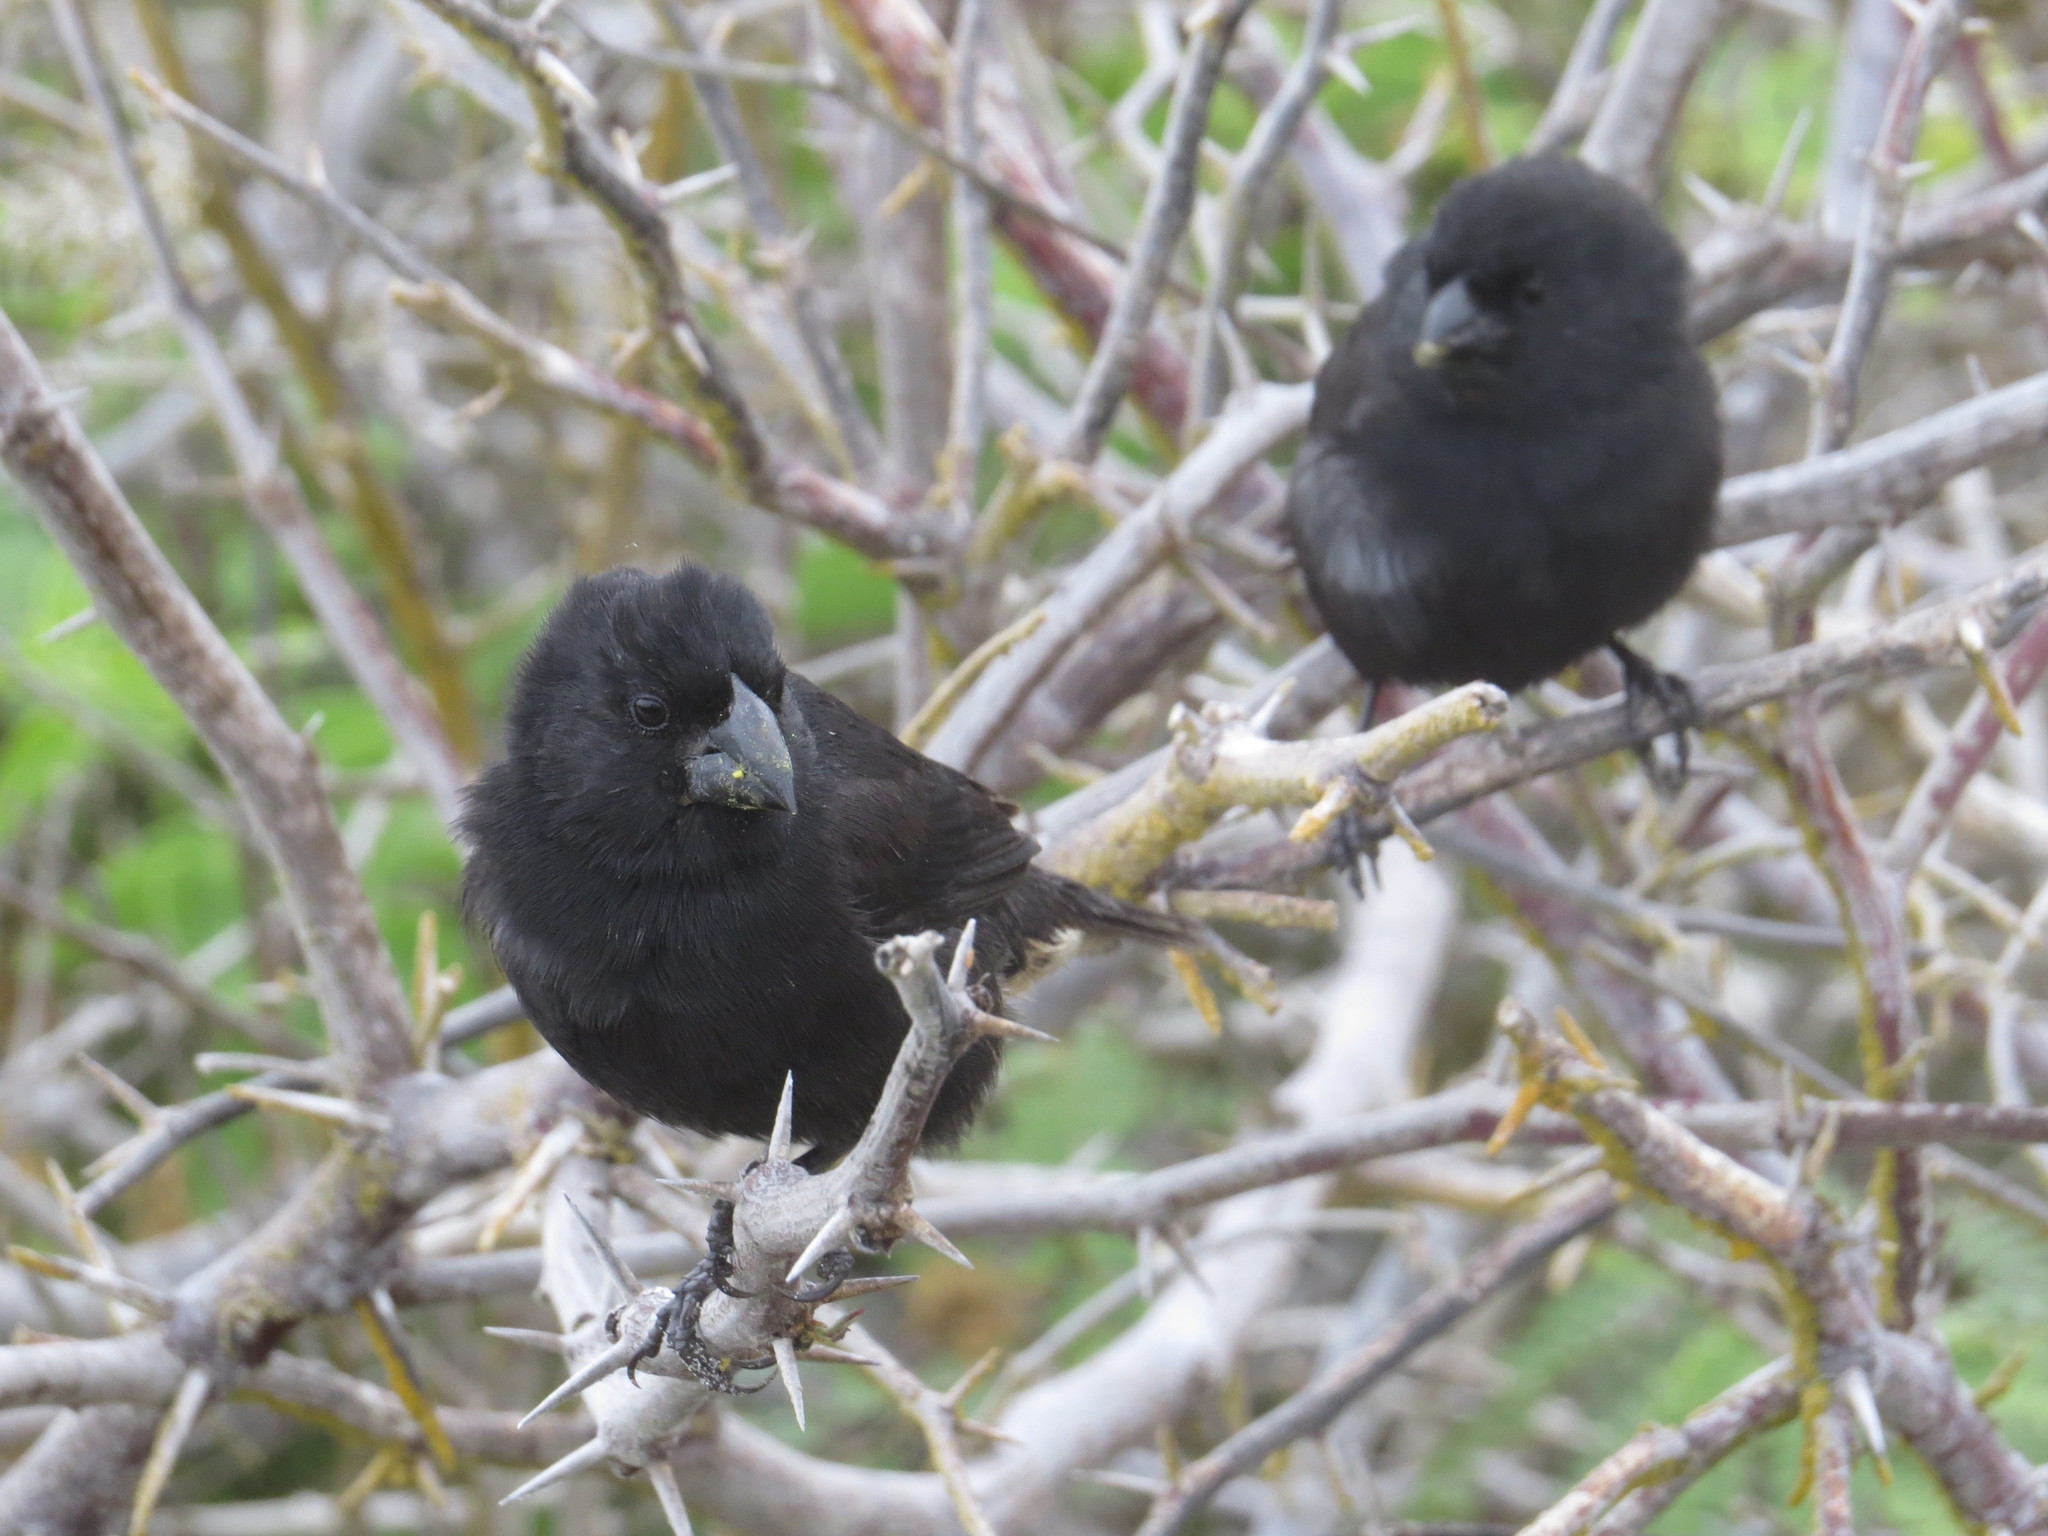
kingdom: Animalia
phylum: Chordata
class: Aves
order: Passeriformes
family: Thraupidae
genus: Geospiza
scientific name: Geospiza fortis
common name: Medium ground finch
